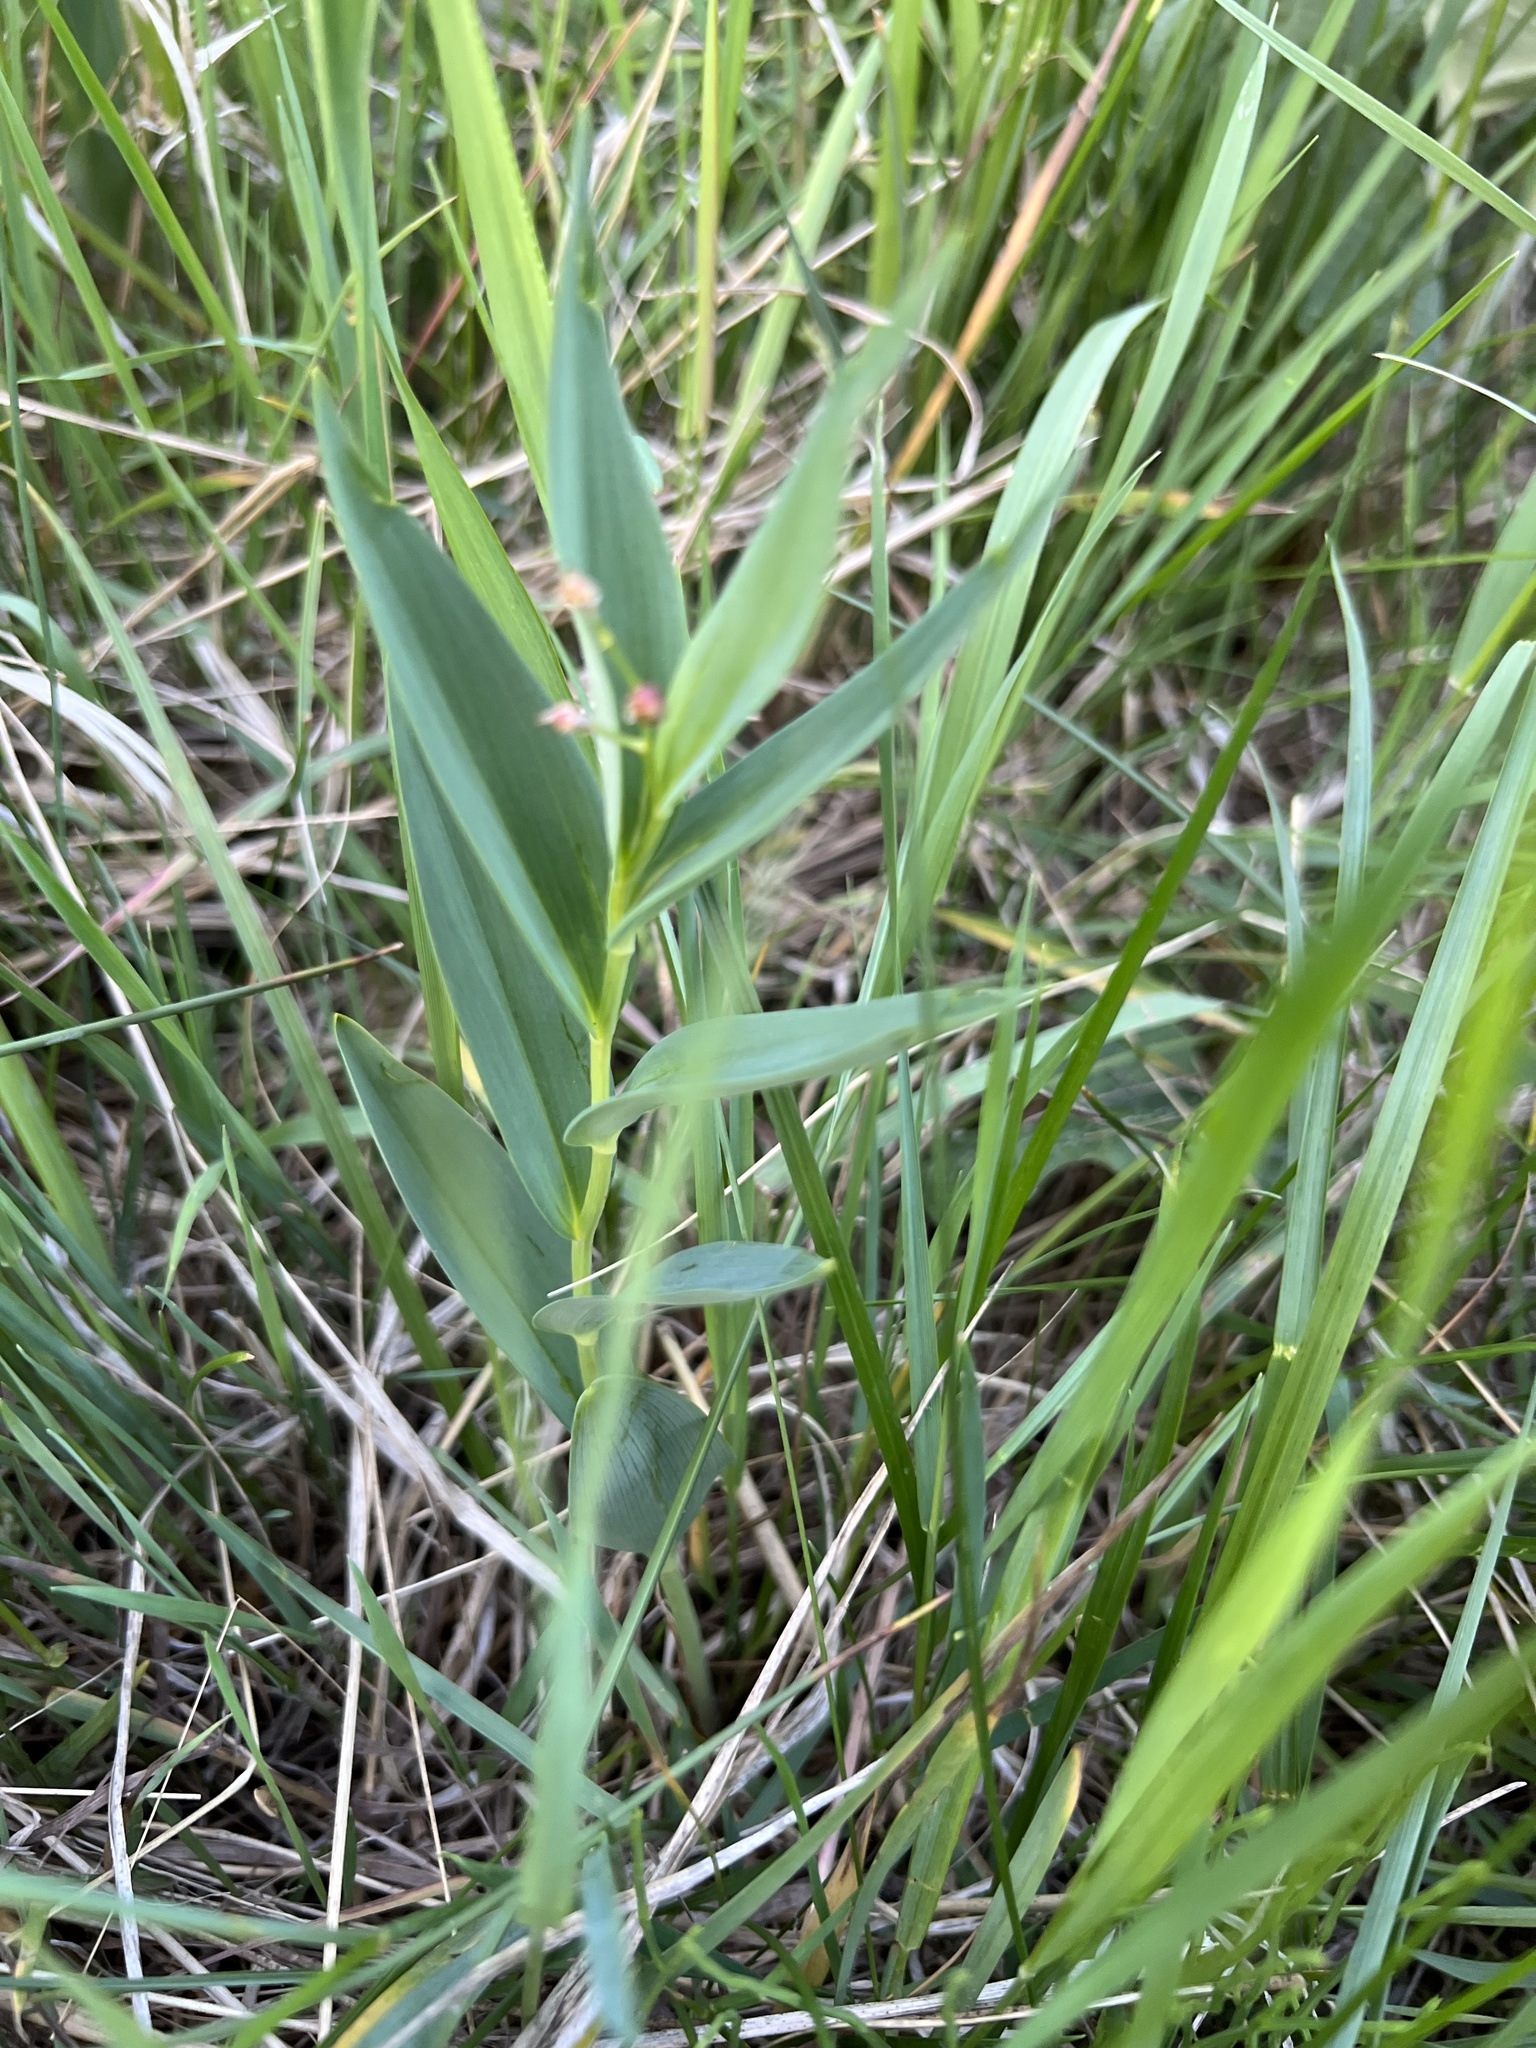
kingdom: Plantae
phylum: Tracheophyta
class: Liliopsida
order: Asparagales
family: Asparagaceae
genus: Maianthemum
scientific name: Maianthemum stellatum
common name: Little false solomon's seal
